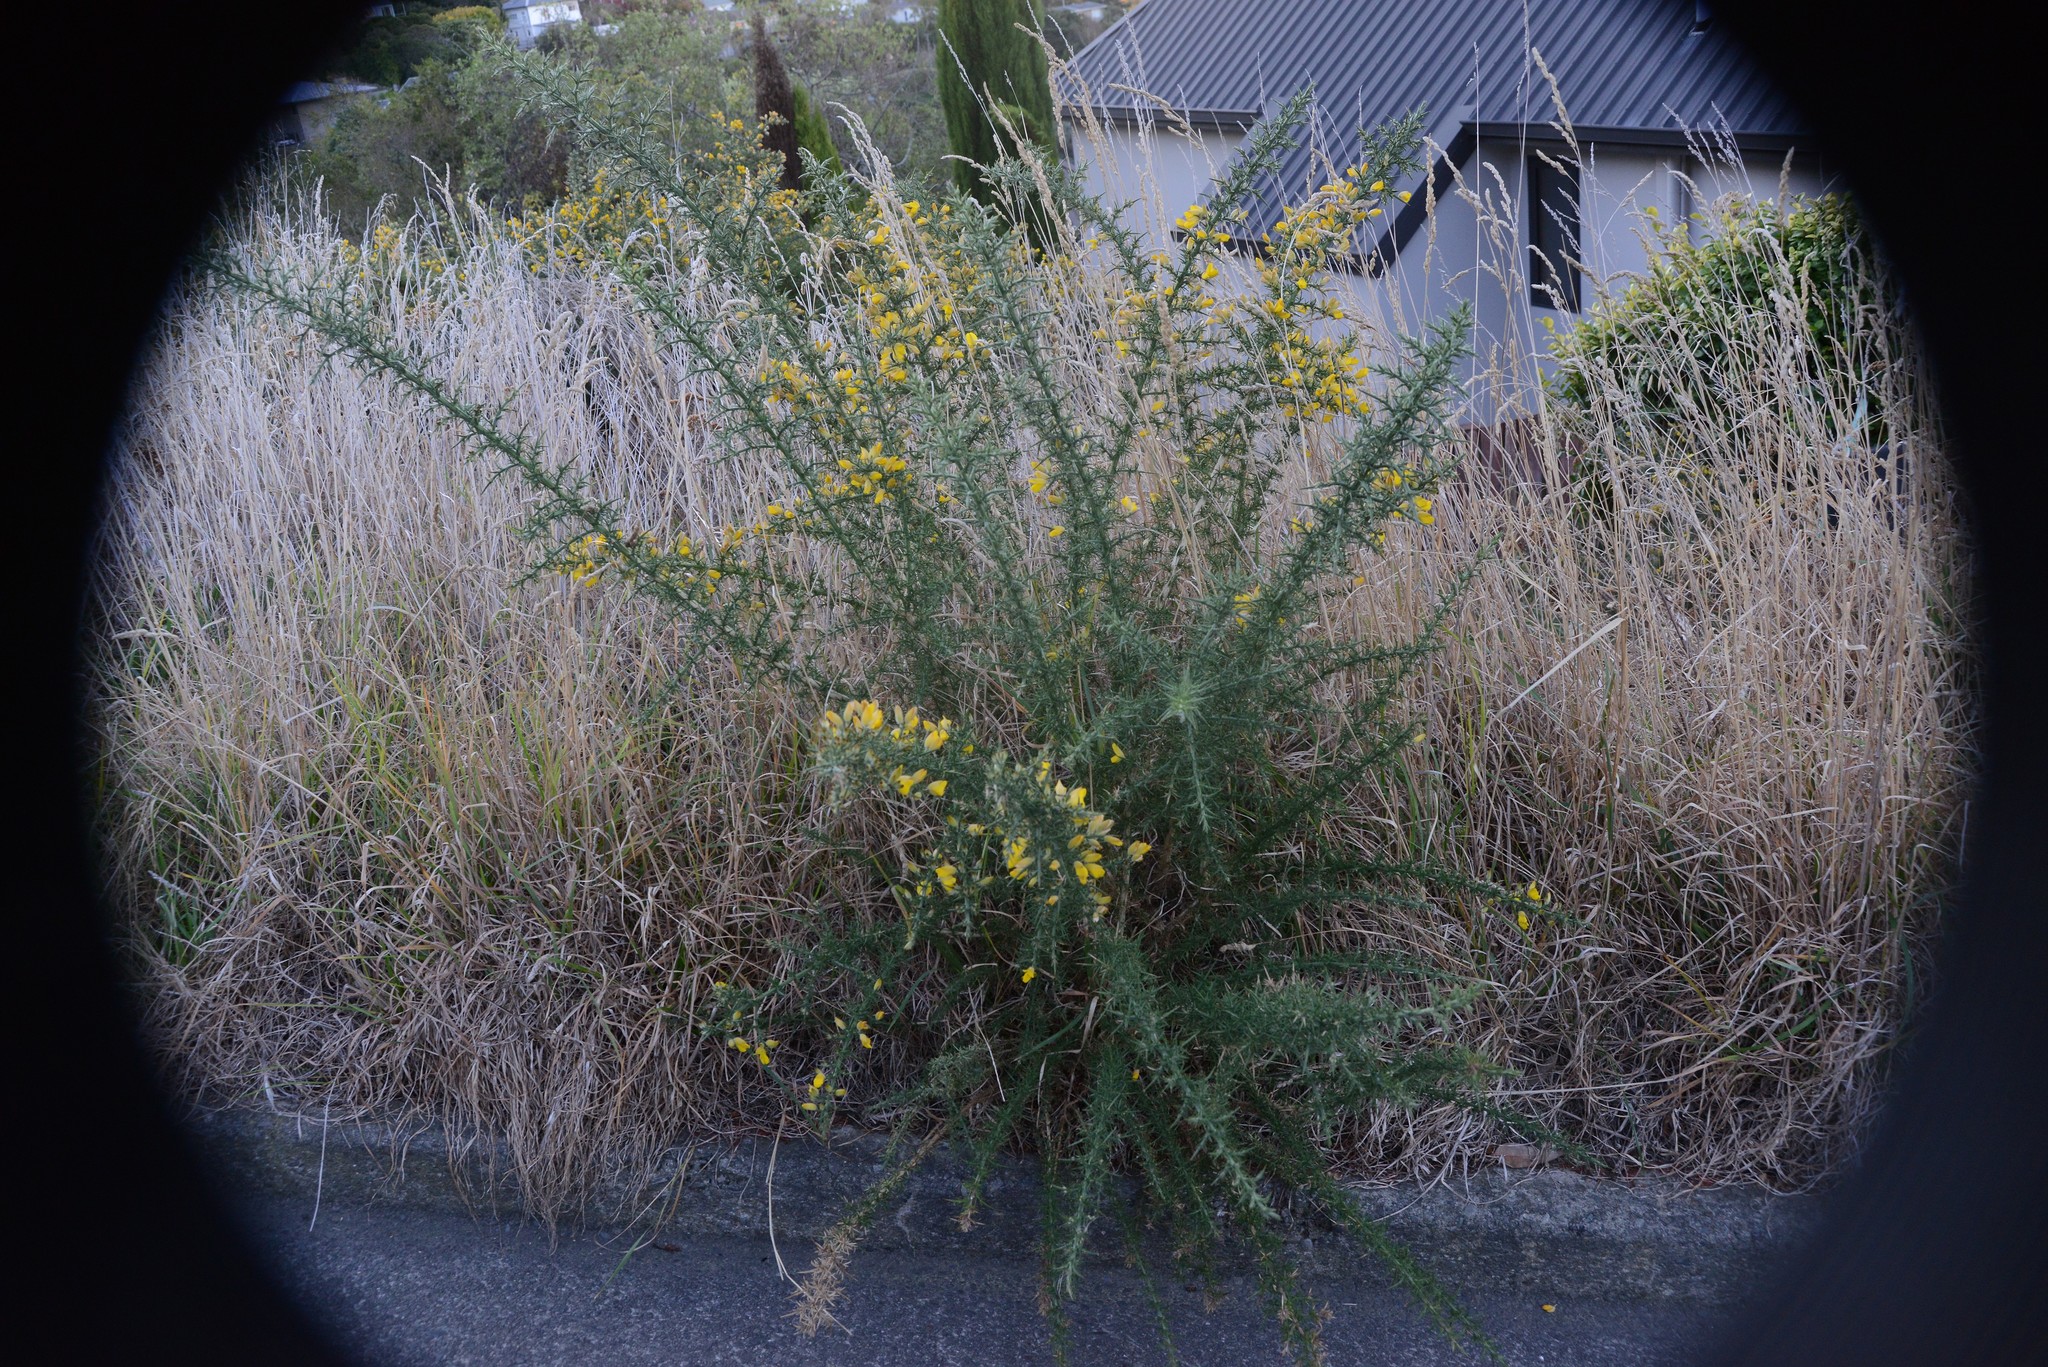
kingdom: Plantae
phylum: Tracheophyta
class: Magnoliopsida
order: Fabales
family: Fabaceae
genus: Ulex
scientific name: Ulex europaeus
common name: Common gorse
